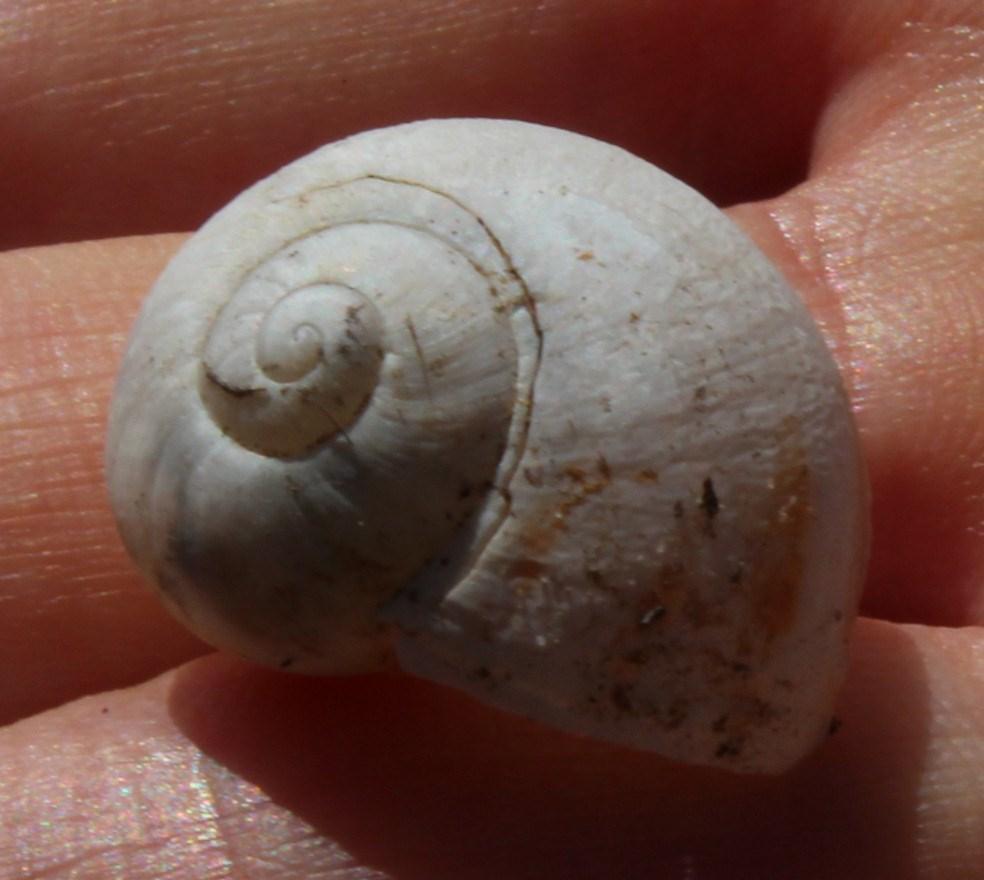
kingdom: Animalia
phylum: Mollusca
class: Gastropoda
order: Stylommatophora
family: Helicidae
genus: Cornu
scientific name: Cornu aspersum
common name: Brown garden snail
